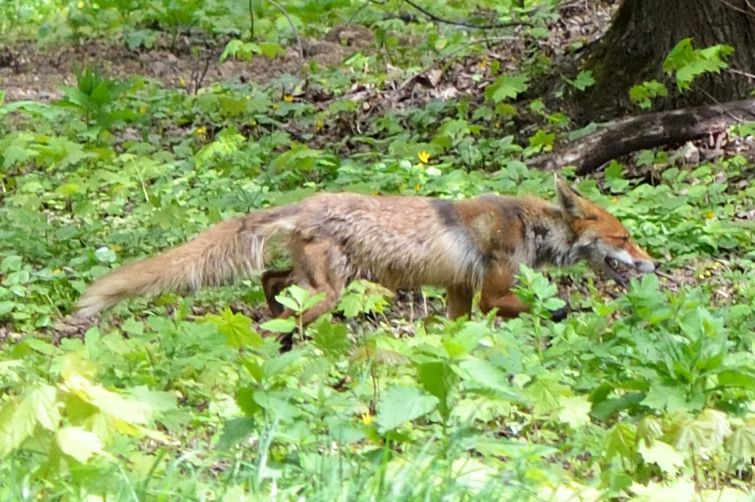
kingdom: Animalia
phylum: Chordata
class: Mammalia
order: Carnivora
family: Canidae
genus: Vulpes
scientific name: Vulpes vulpes
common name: Red fox
